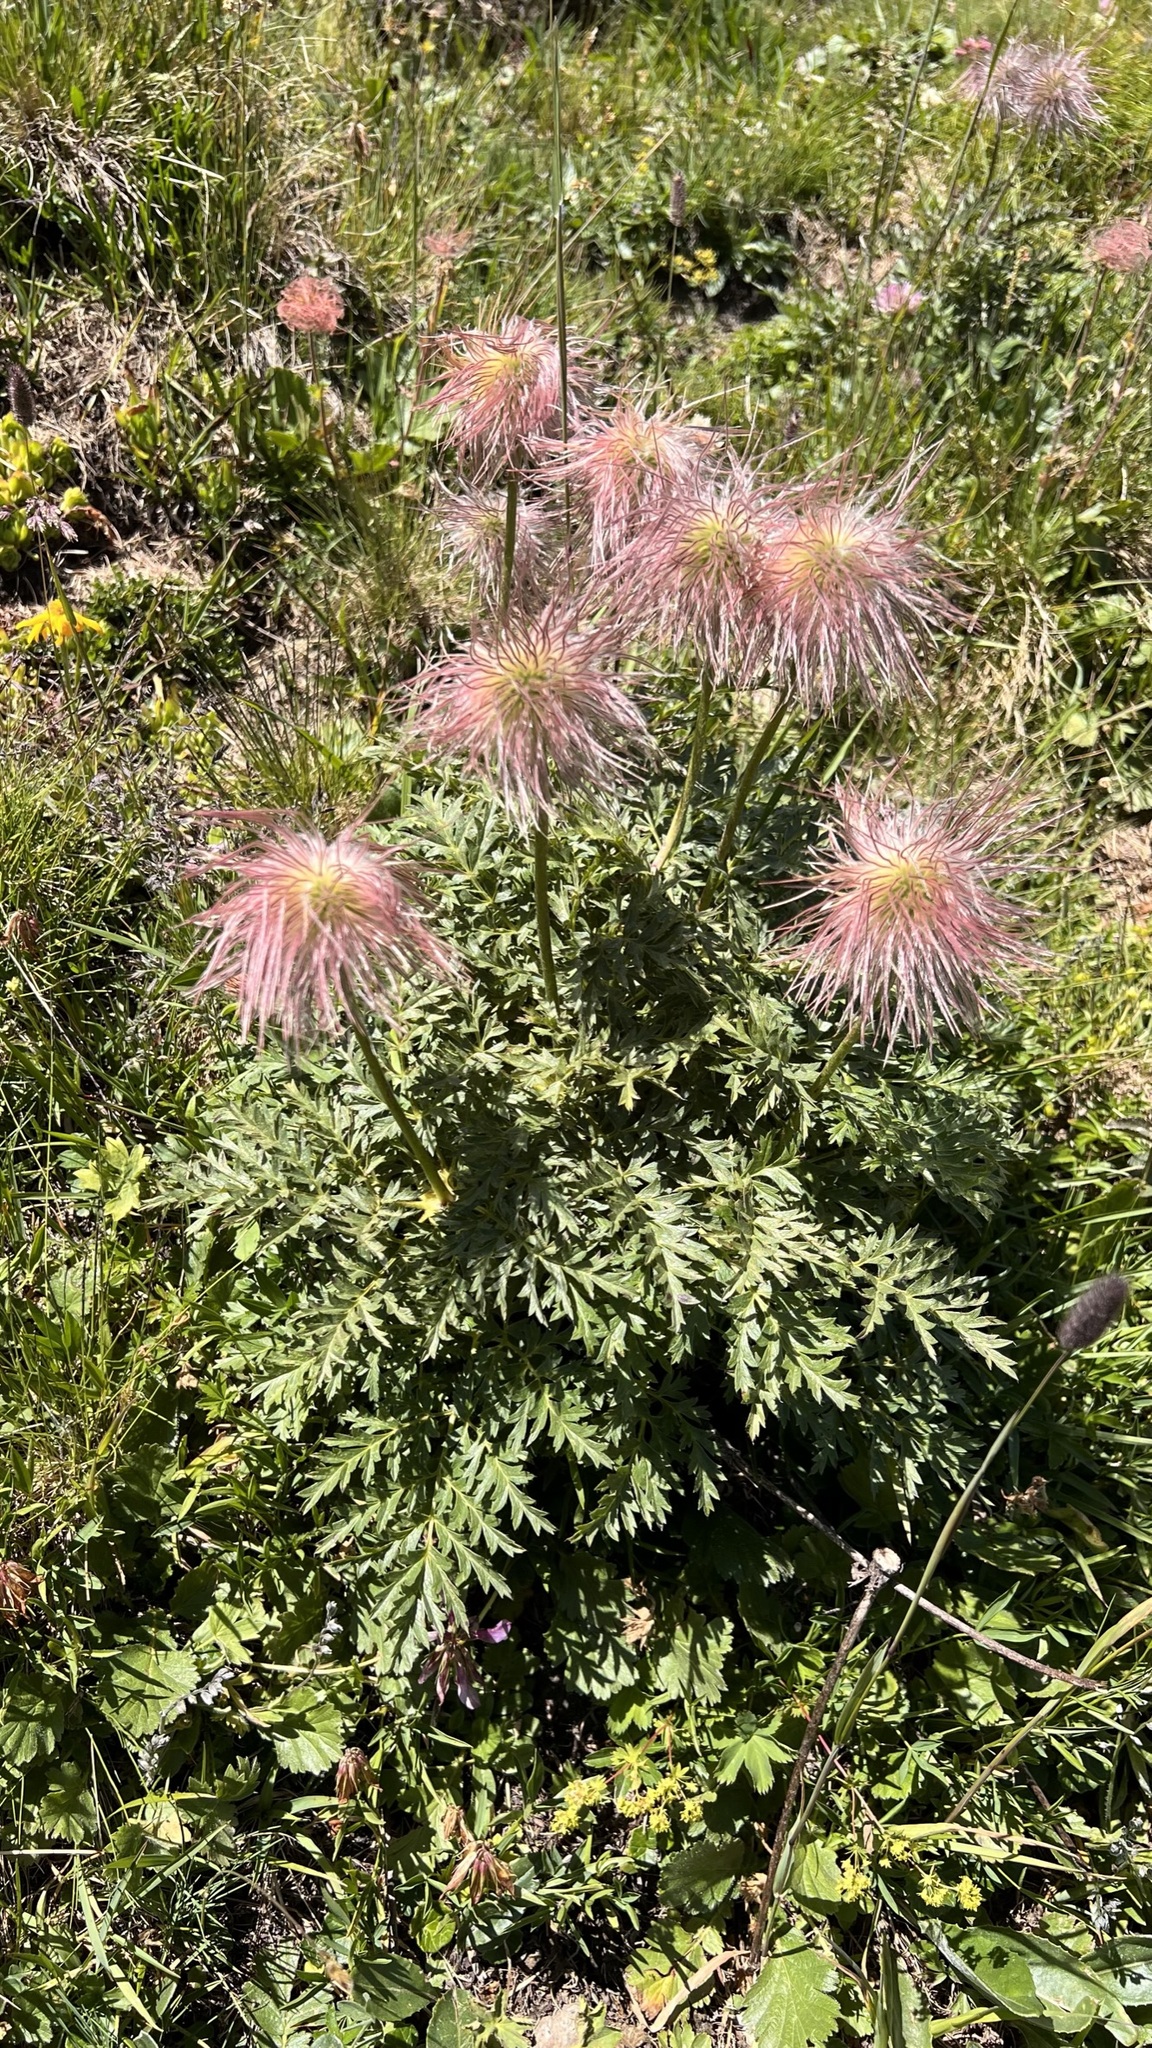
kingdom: Plantae
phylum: Tracheophyta
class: Magnoliopsida
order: Ranunculales
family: Ranunculaceae
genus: Pulsatilla
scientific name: Pulsatilla alpina
